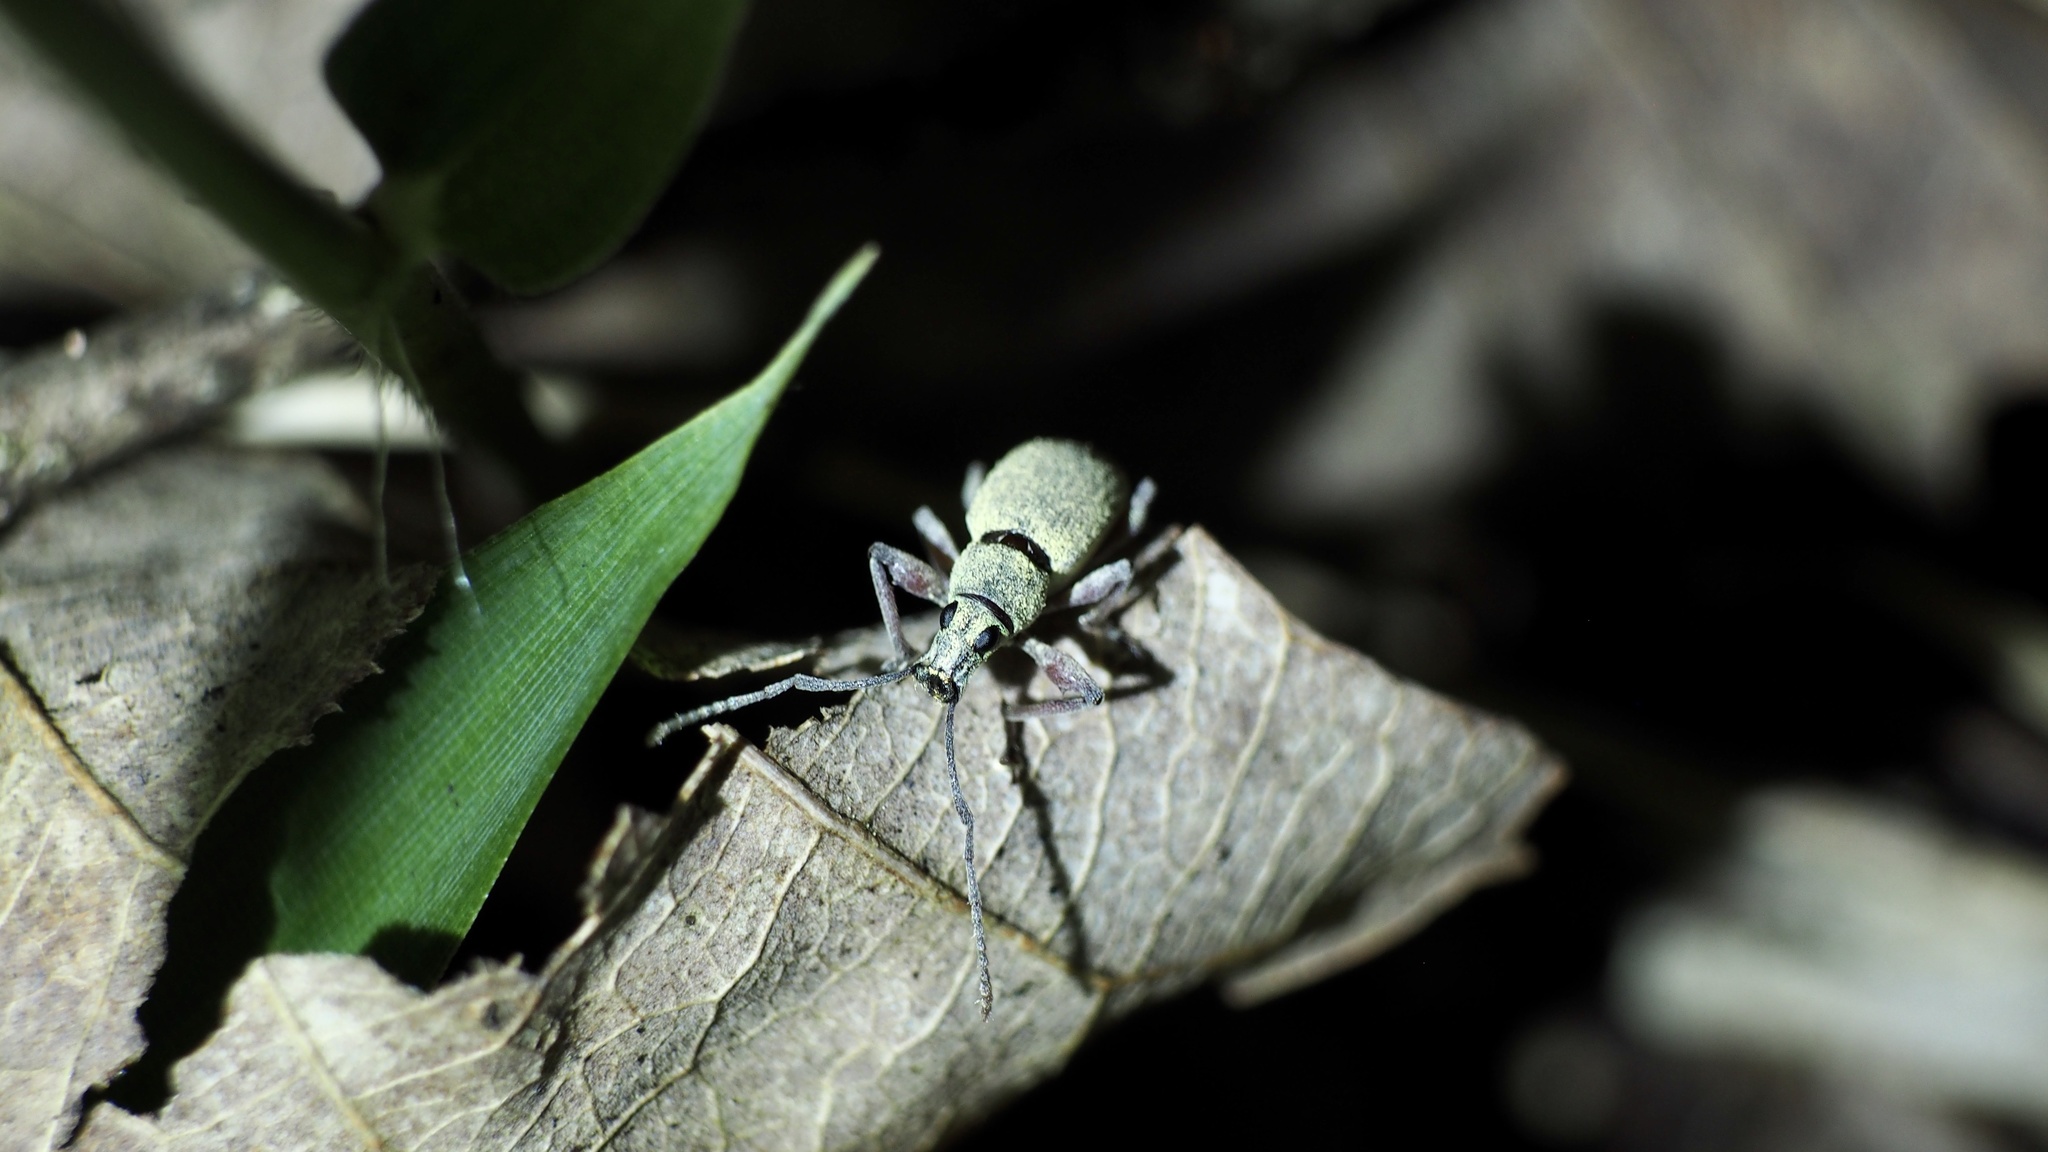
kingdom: Animalia
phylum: Arthropoda
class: Insecta
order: Coleoptera
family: Curculionidae
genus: Phyllolytus
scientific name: Phyllolytus variabilis
